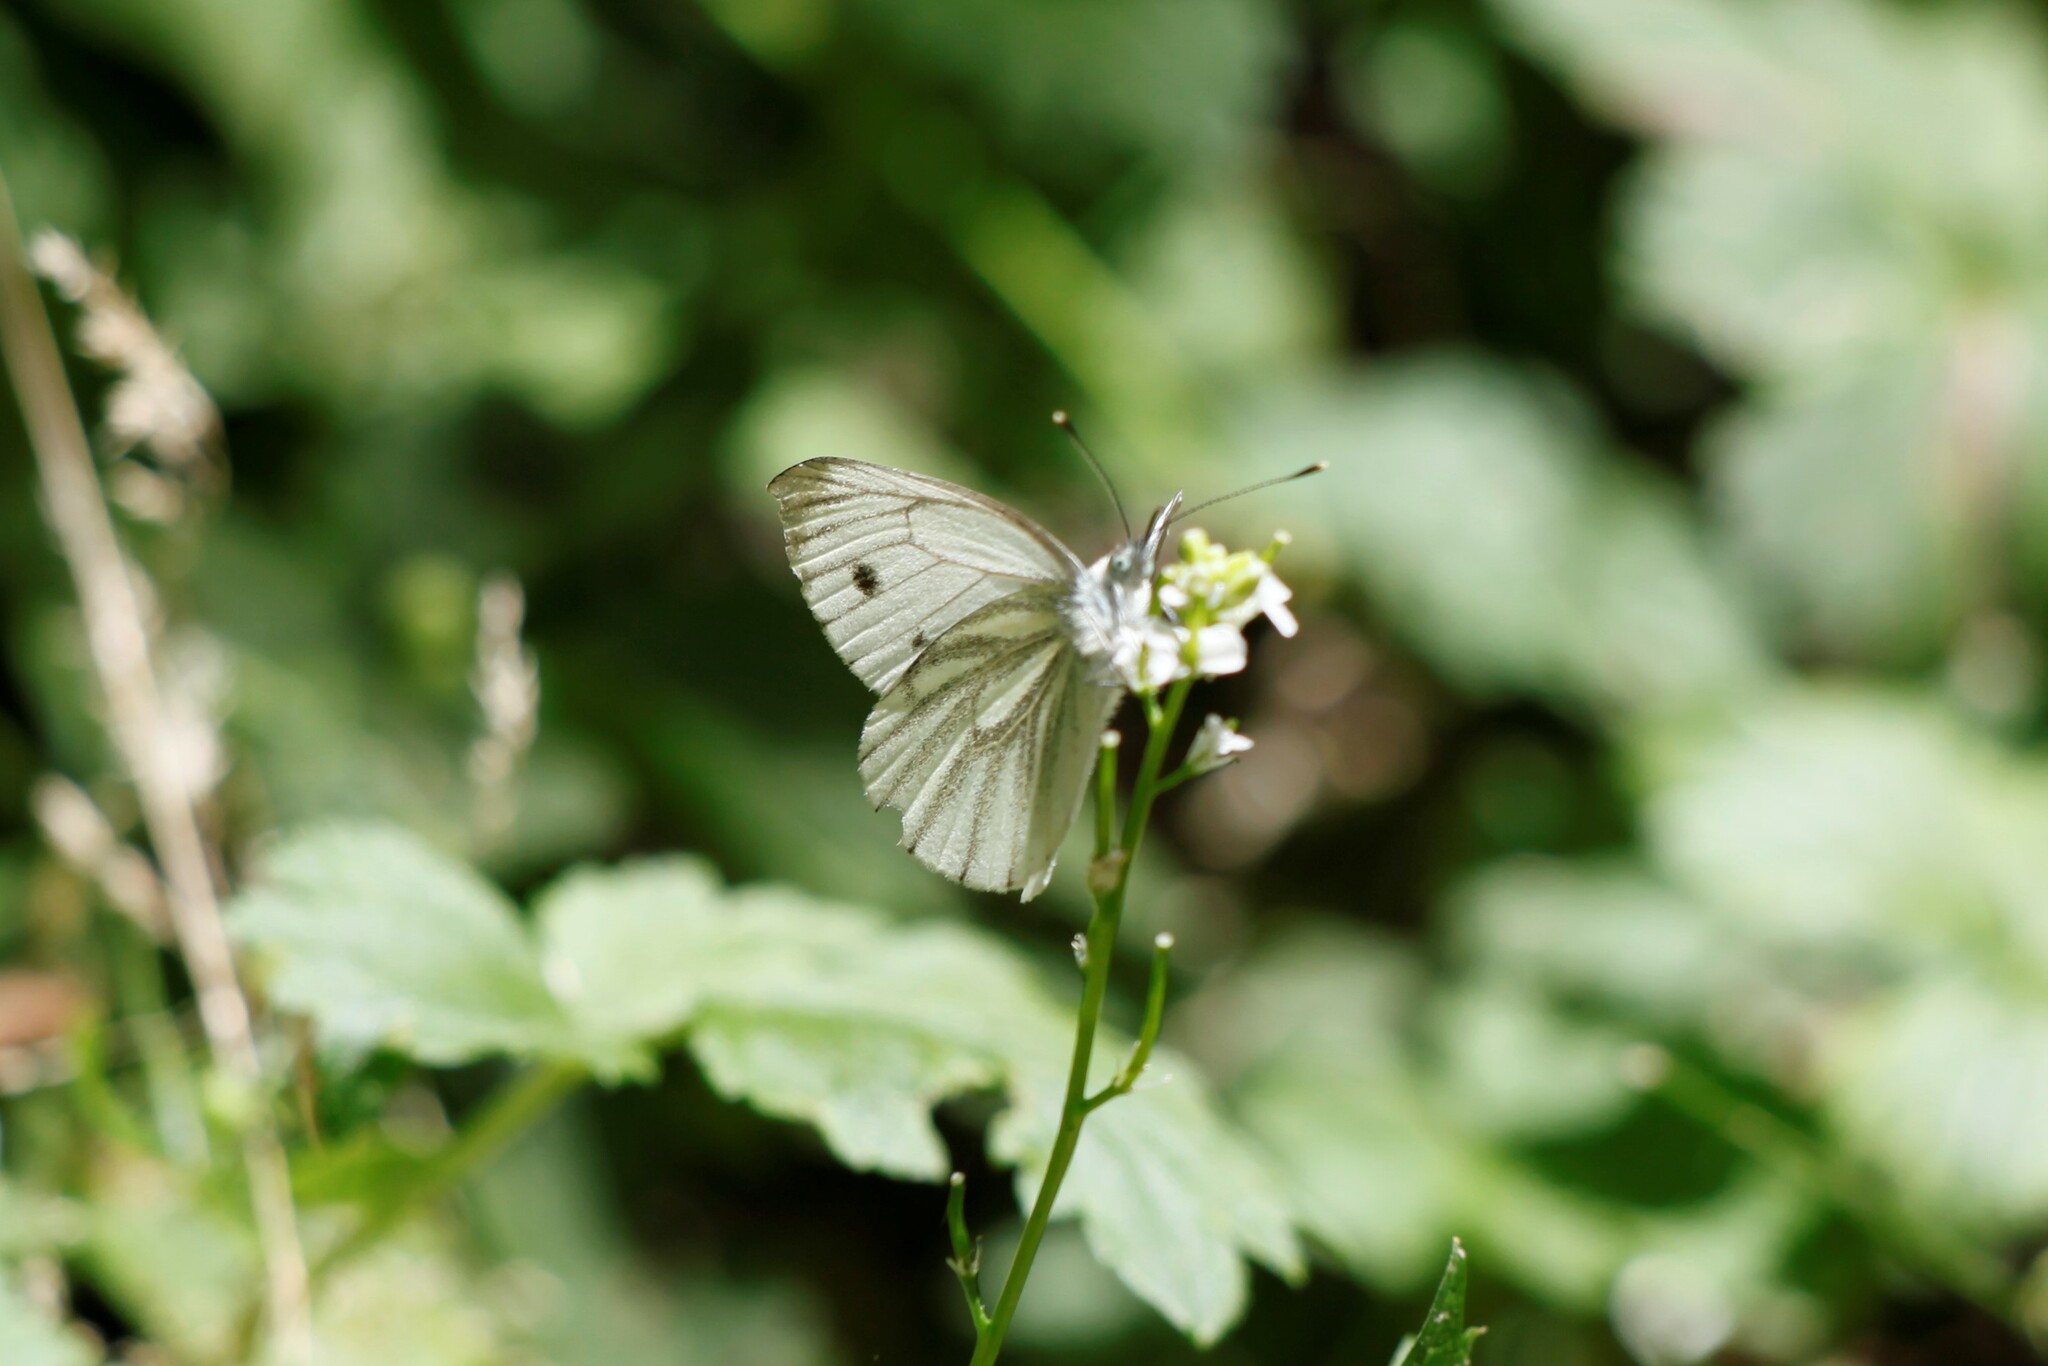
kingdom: Animalia
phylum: Arthropoda
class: Insecta
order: Lepidoptera
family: Pieridae
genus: Pieris
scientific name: Pieris napi
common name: Green-veined white
